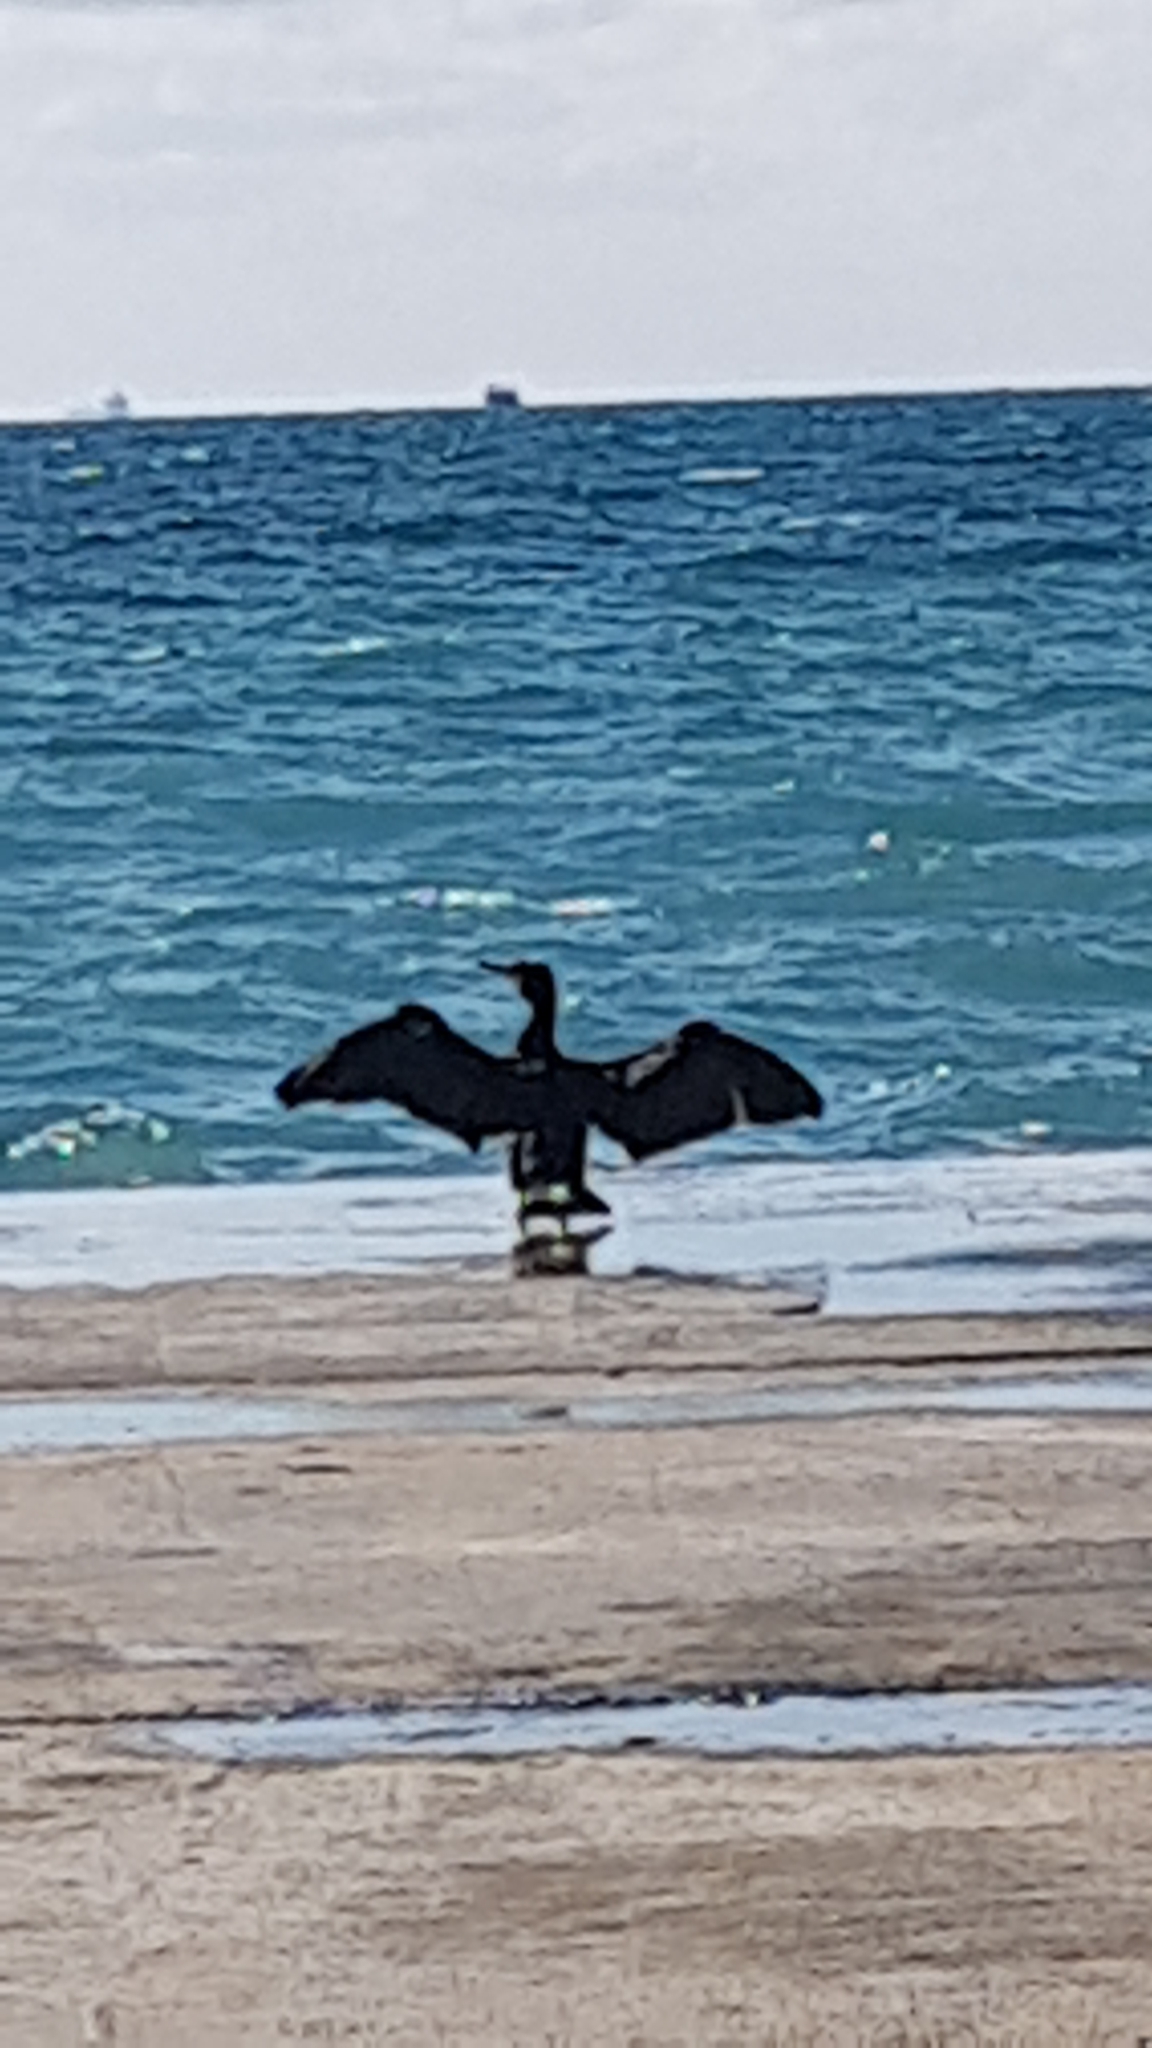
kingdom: Animalia
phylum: Chordata
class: Aves
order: Suliformes
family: Phalacrocoracidae
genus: Phalacrocorax
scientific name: Phalacrocorax carbo
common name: Great cormorant
